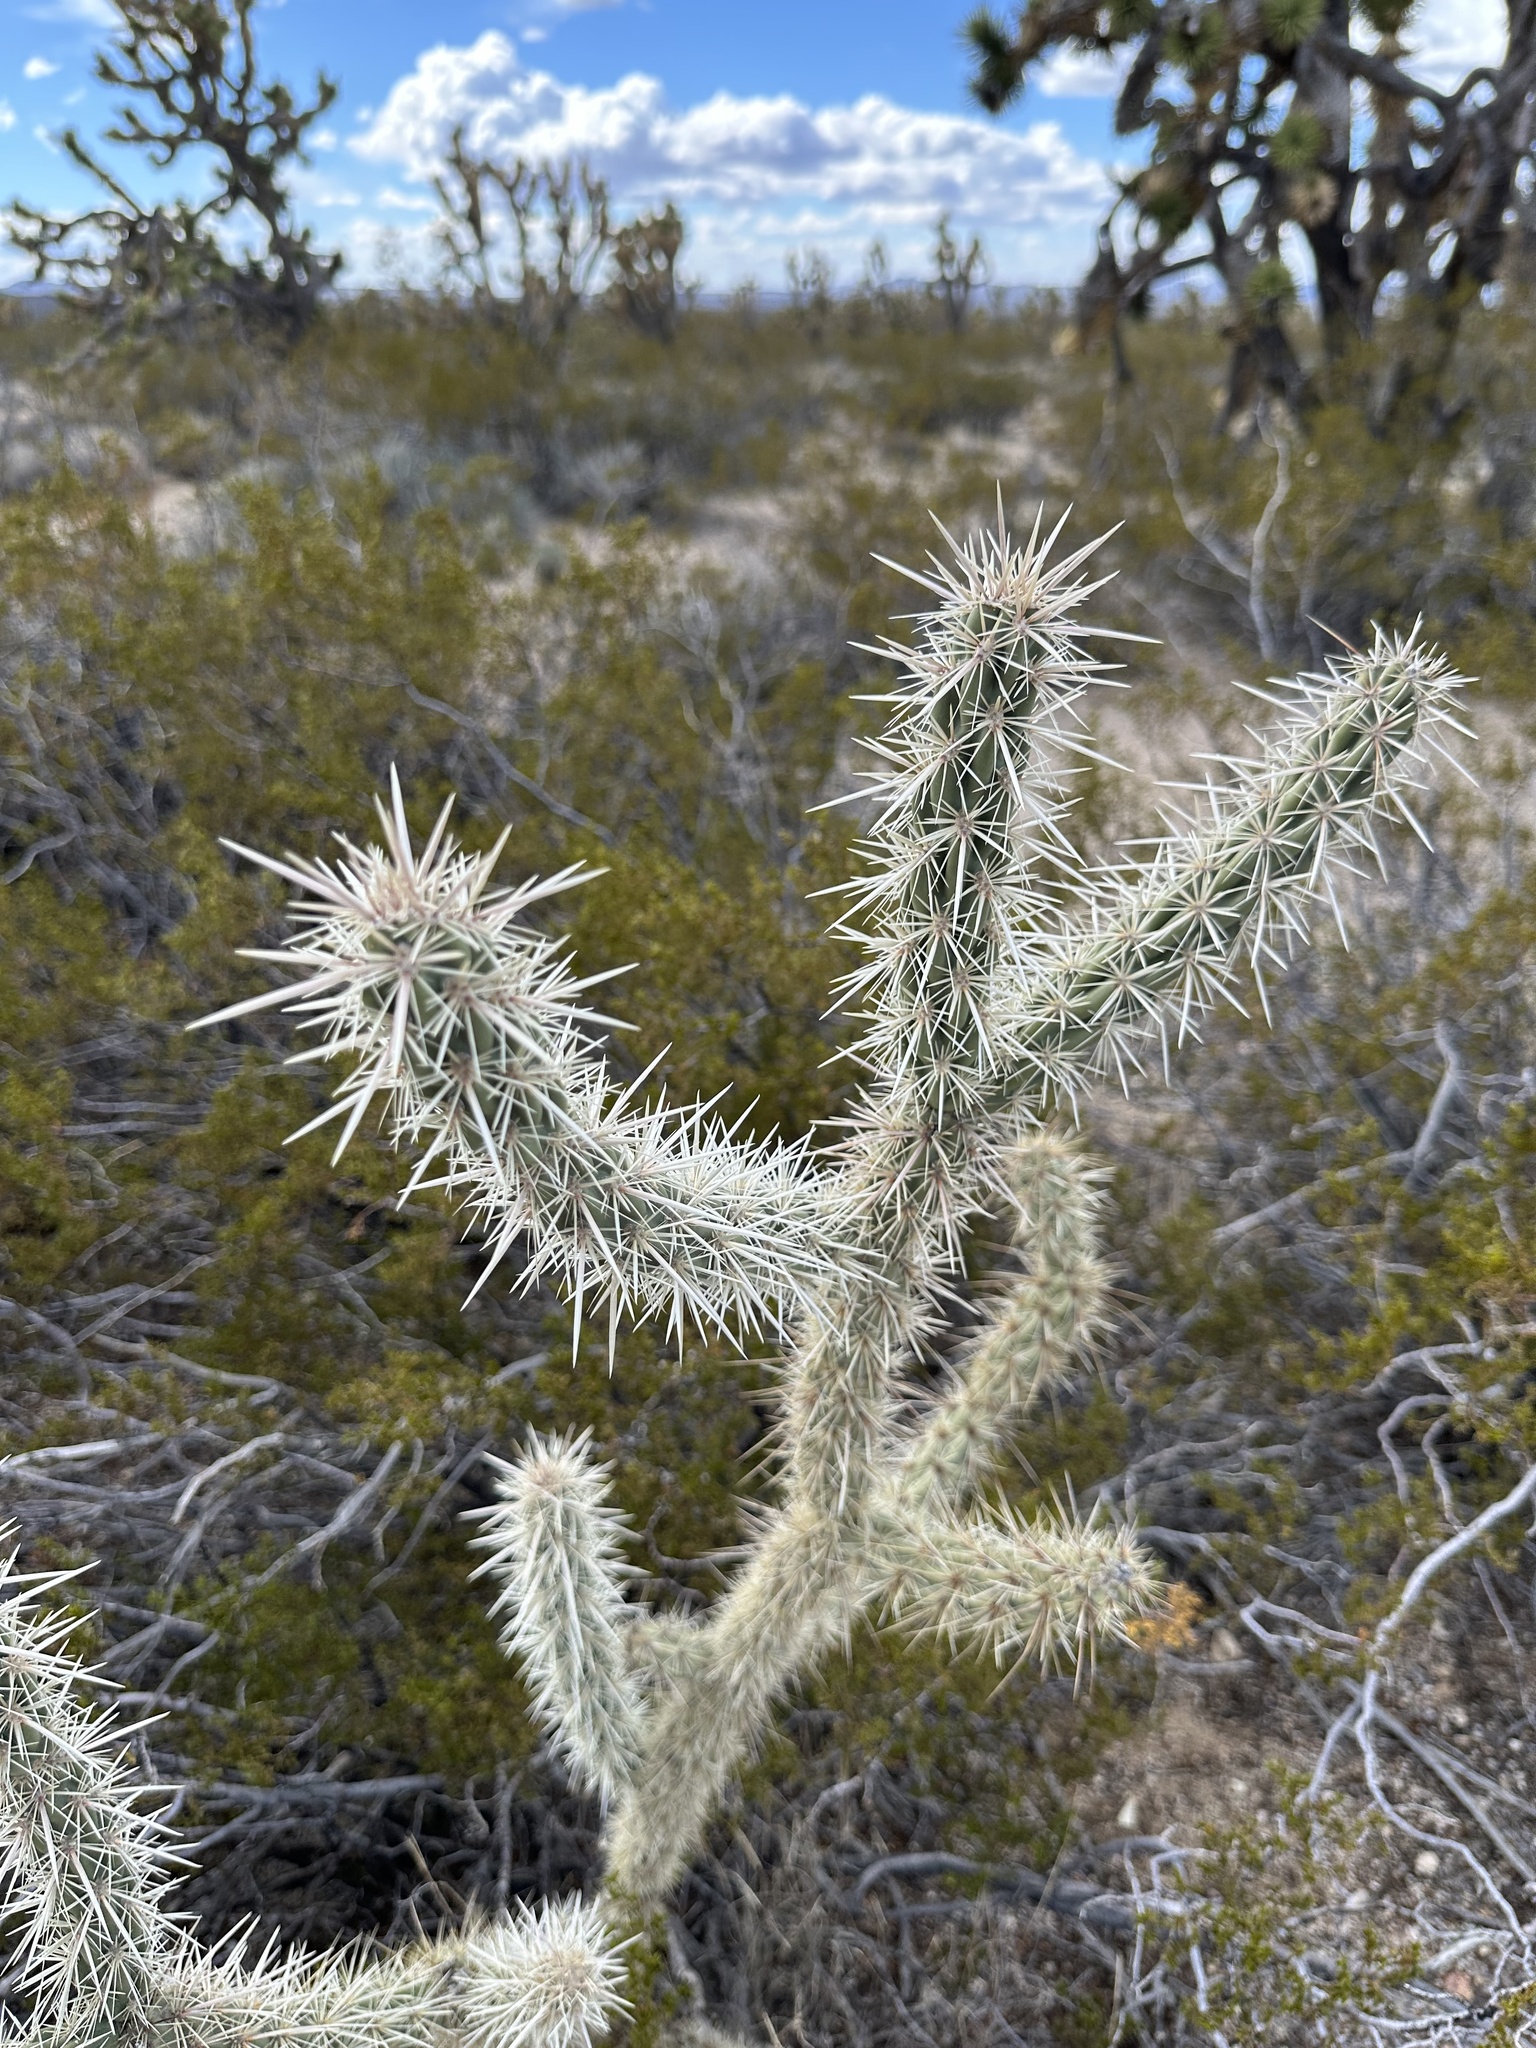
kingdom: Plantae
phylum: Tracheophyta
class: Magnoliopsida
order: Caryophyllales
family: Cactaceae
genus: Cylindropuntia
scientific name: Cylindropuntia acanthocarpa
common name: Buckhorn cholla
